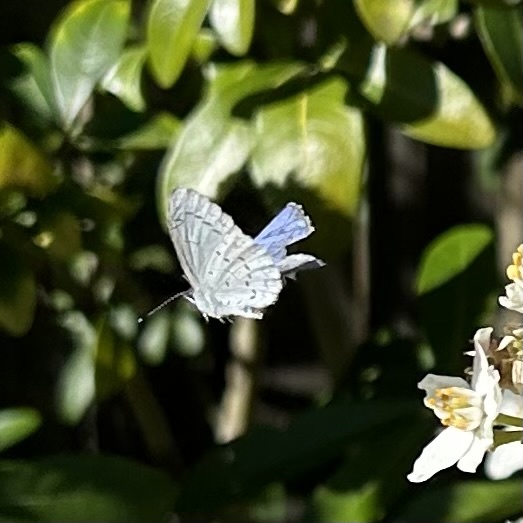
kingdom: Animalia
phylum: Arthropoda
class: Insecta
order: Lepidoptera
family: Lycaenidae
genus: Celastrina
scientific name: Celastrina ladon
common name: Spring azure
